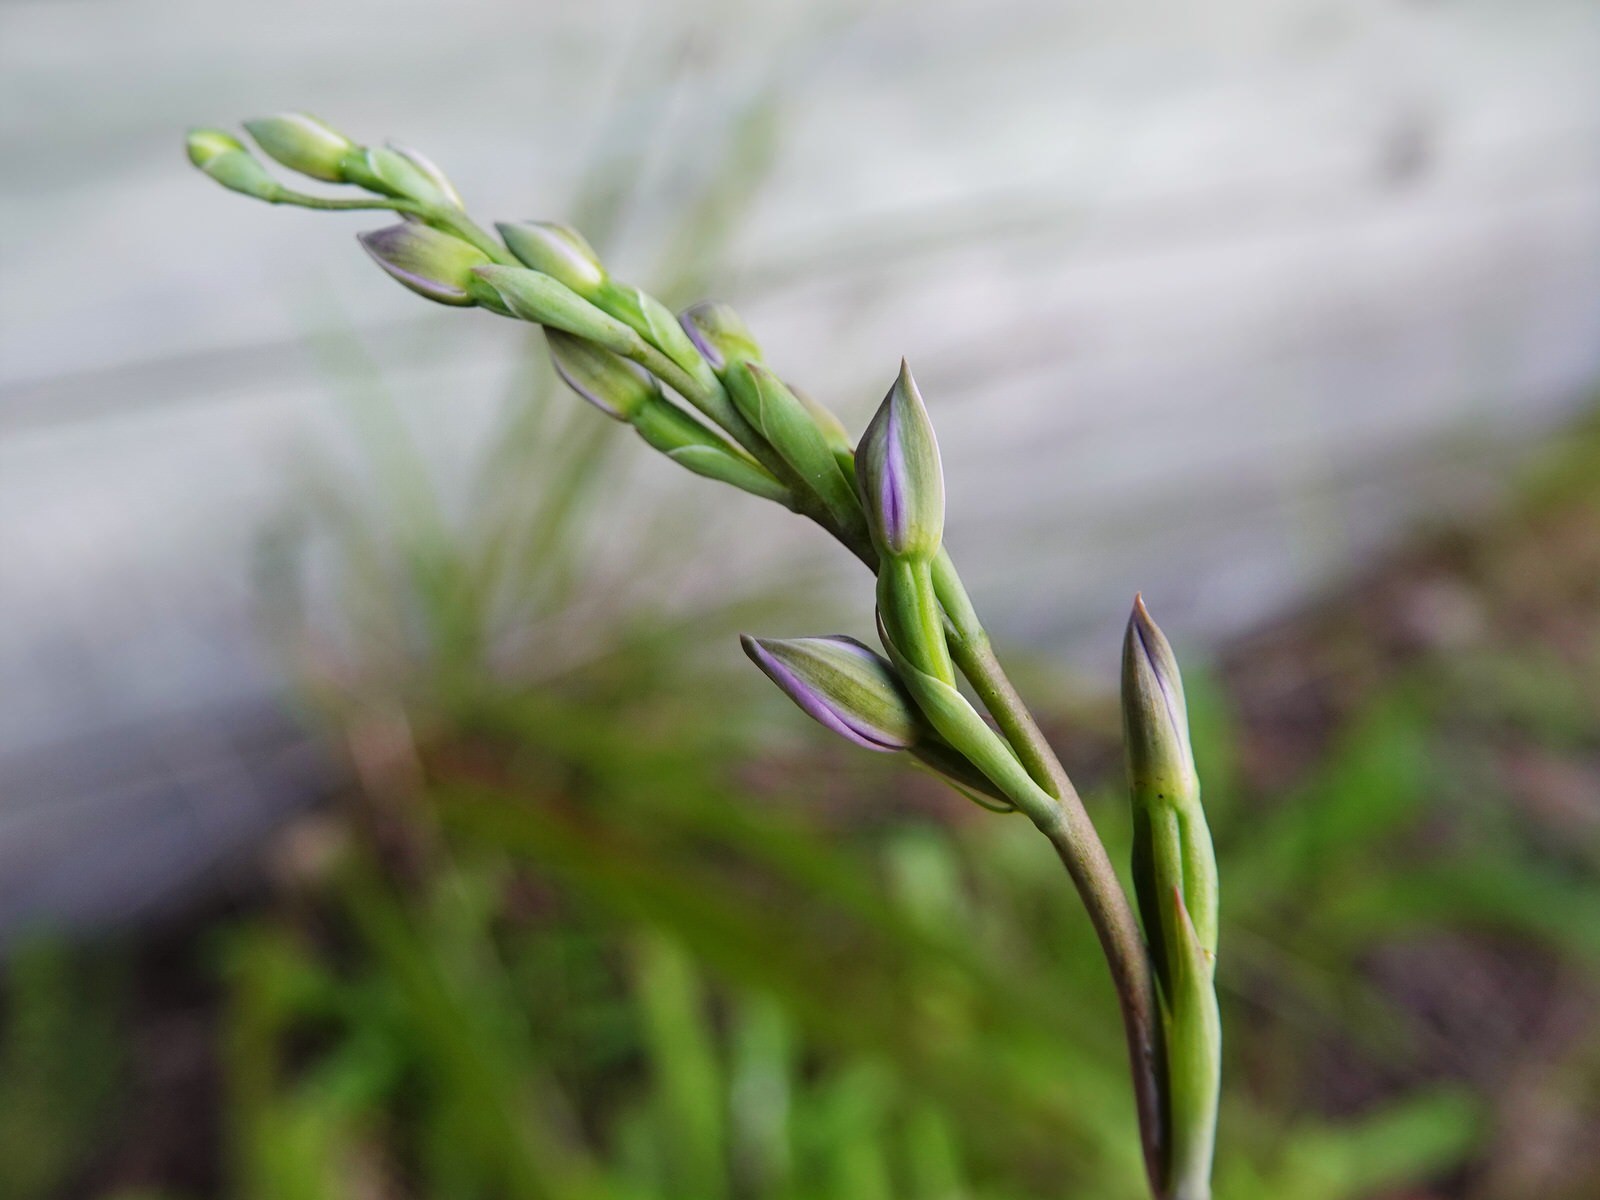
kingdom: Plantae
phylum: Tracheophyta
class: Liliopsida
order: Asparagales
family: Orchidaceae
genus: Thelymitra
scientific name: Thelymitra pauciflora
